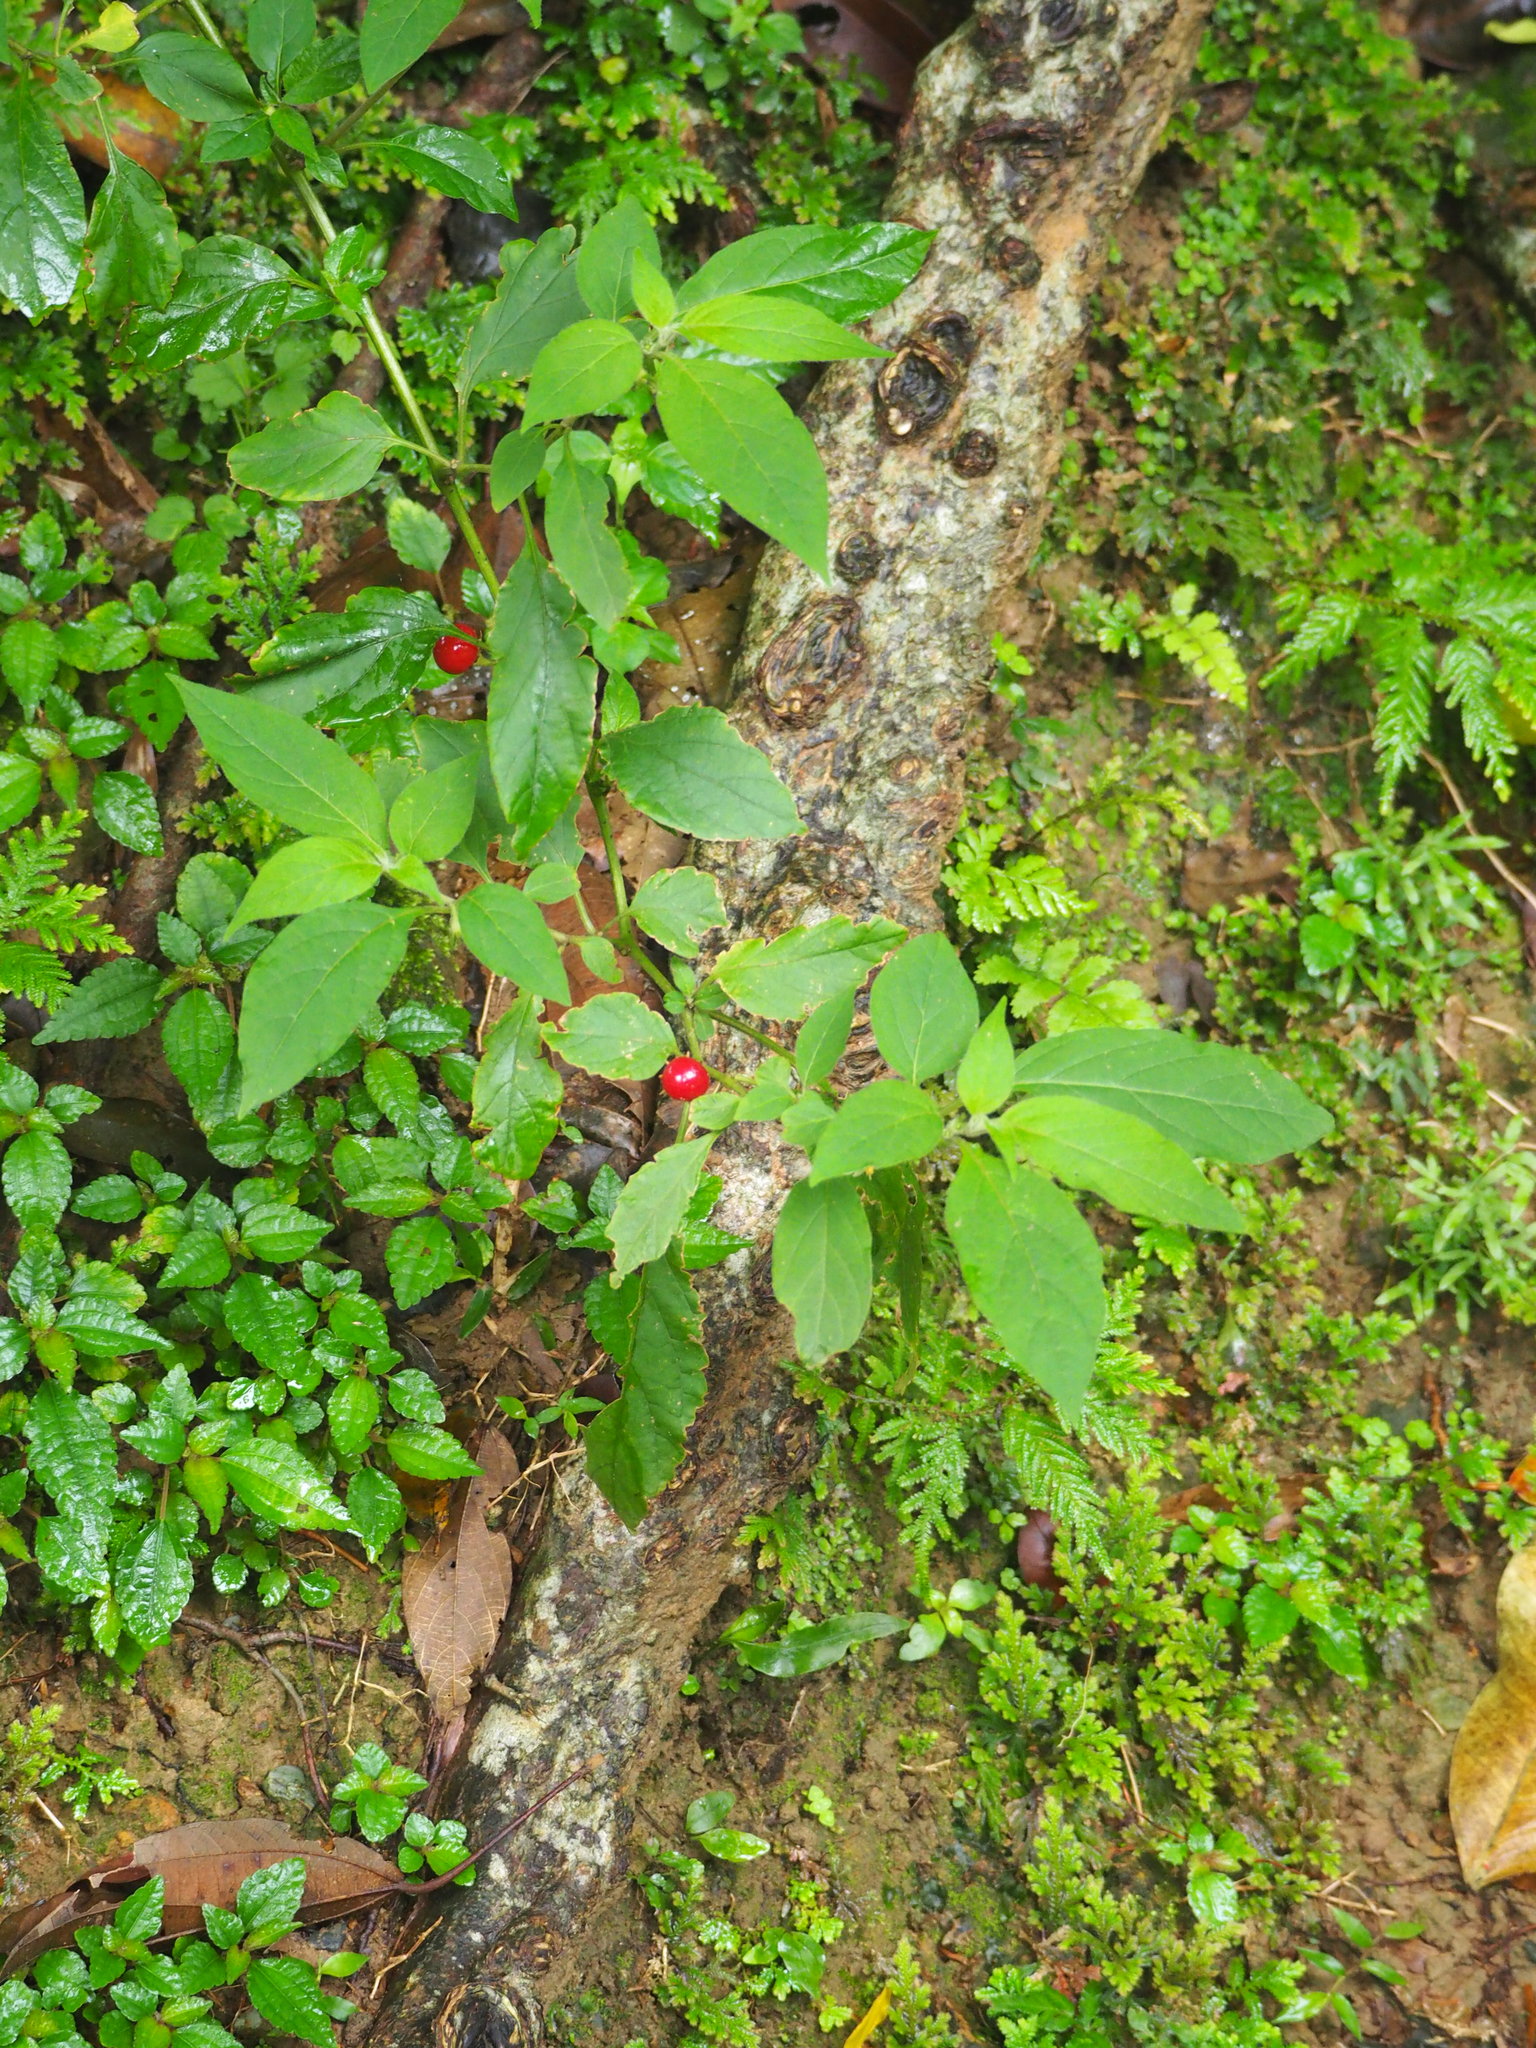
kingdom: Plantae
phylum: Tracheophyta
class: Magnoliopsida
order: Solanales
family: Solanaceae
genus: Lycianthes
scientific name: Lycianthes biflora
